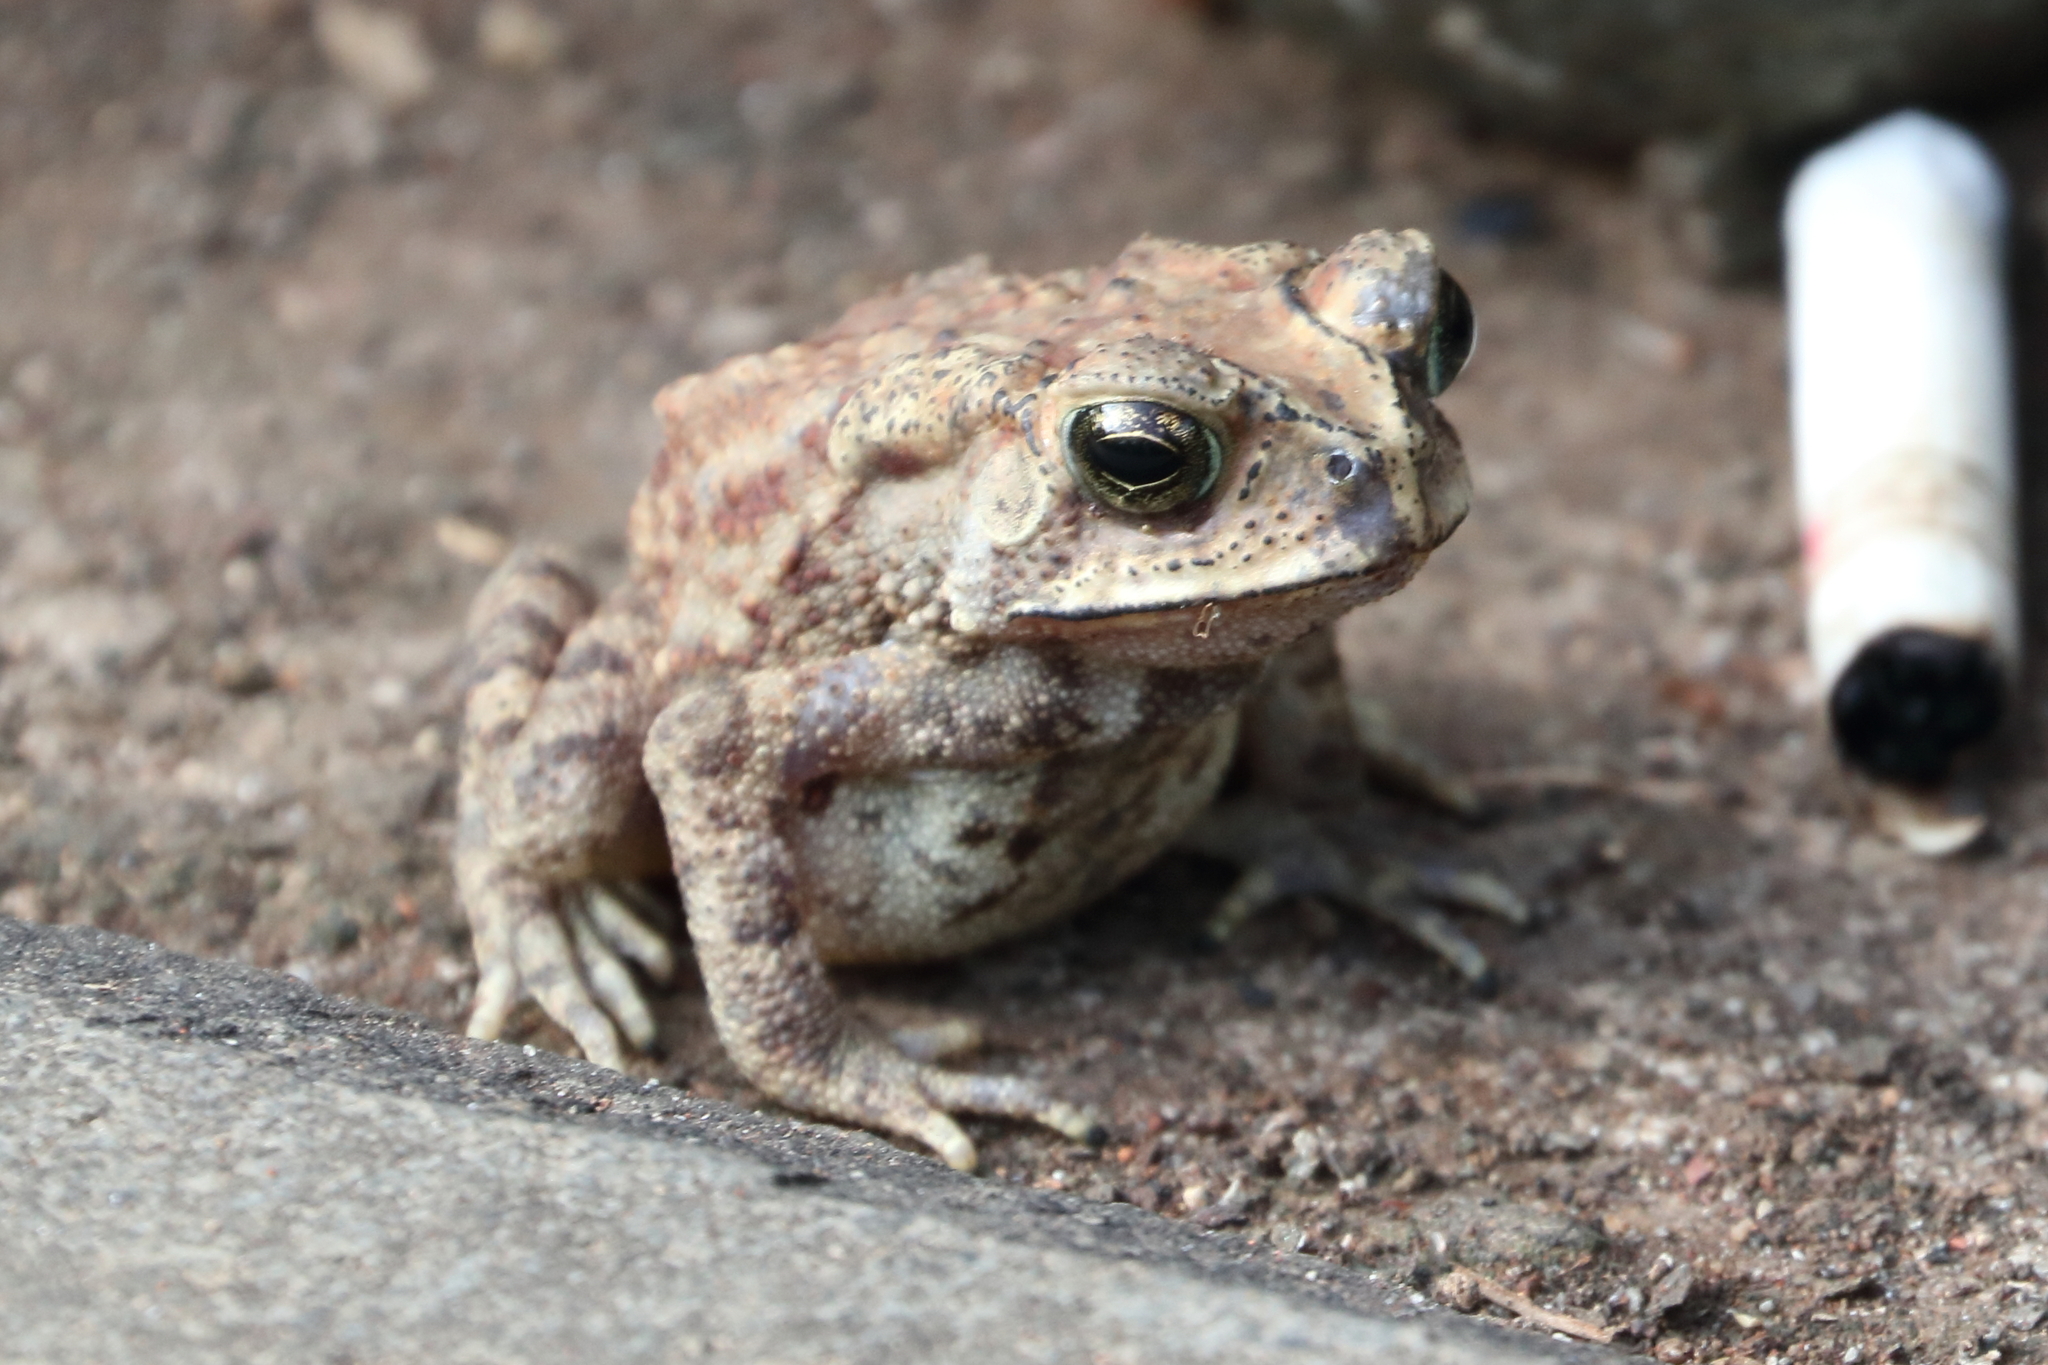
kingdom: Animalia
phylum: Chordata
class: Amphibia
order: Anura
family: Bufonidae
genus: Duttaphrynus
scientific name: Duttaphrynus melanostictus
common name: Common sunda toad
